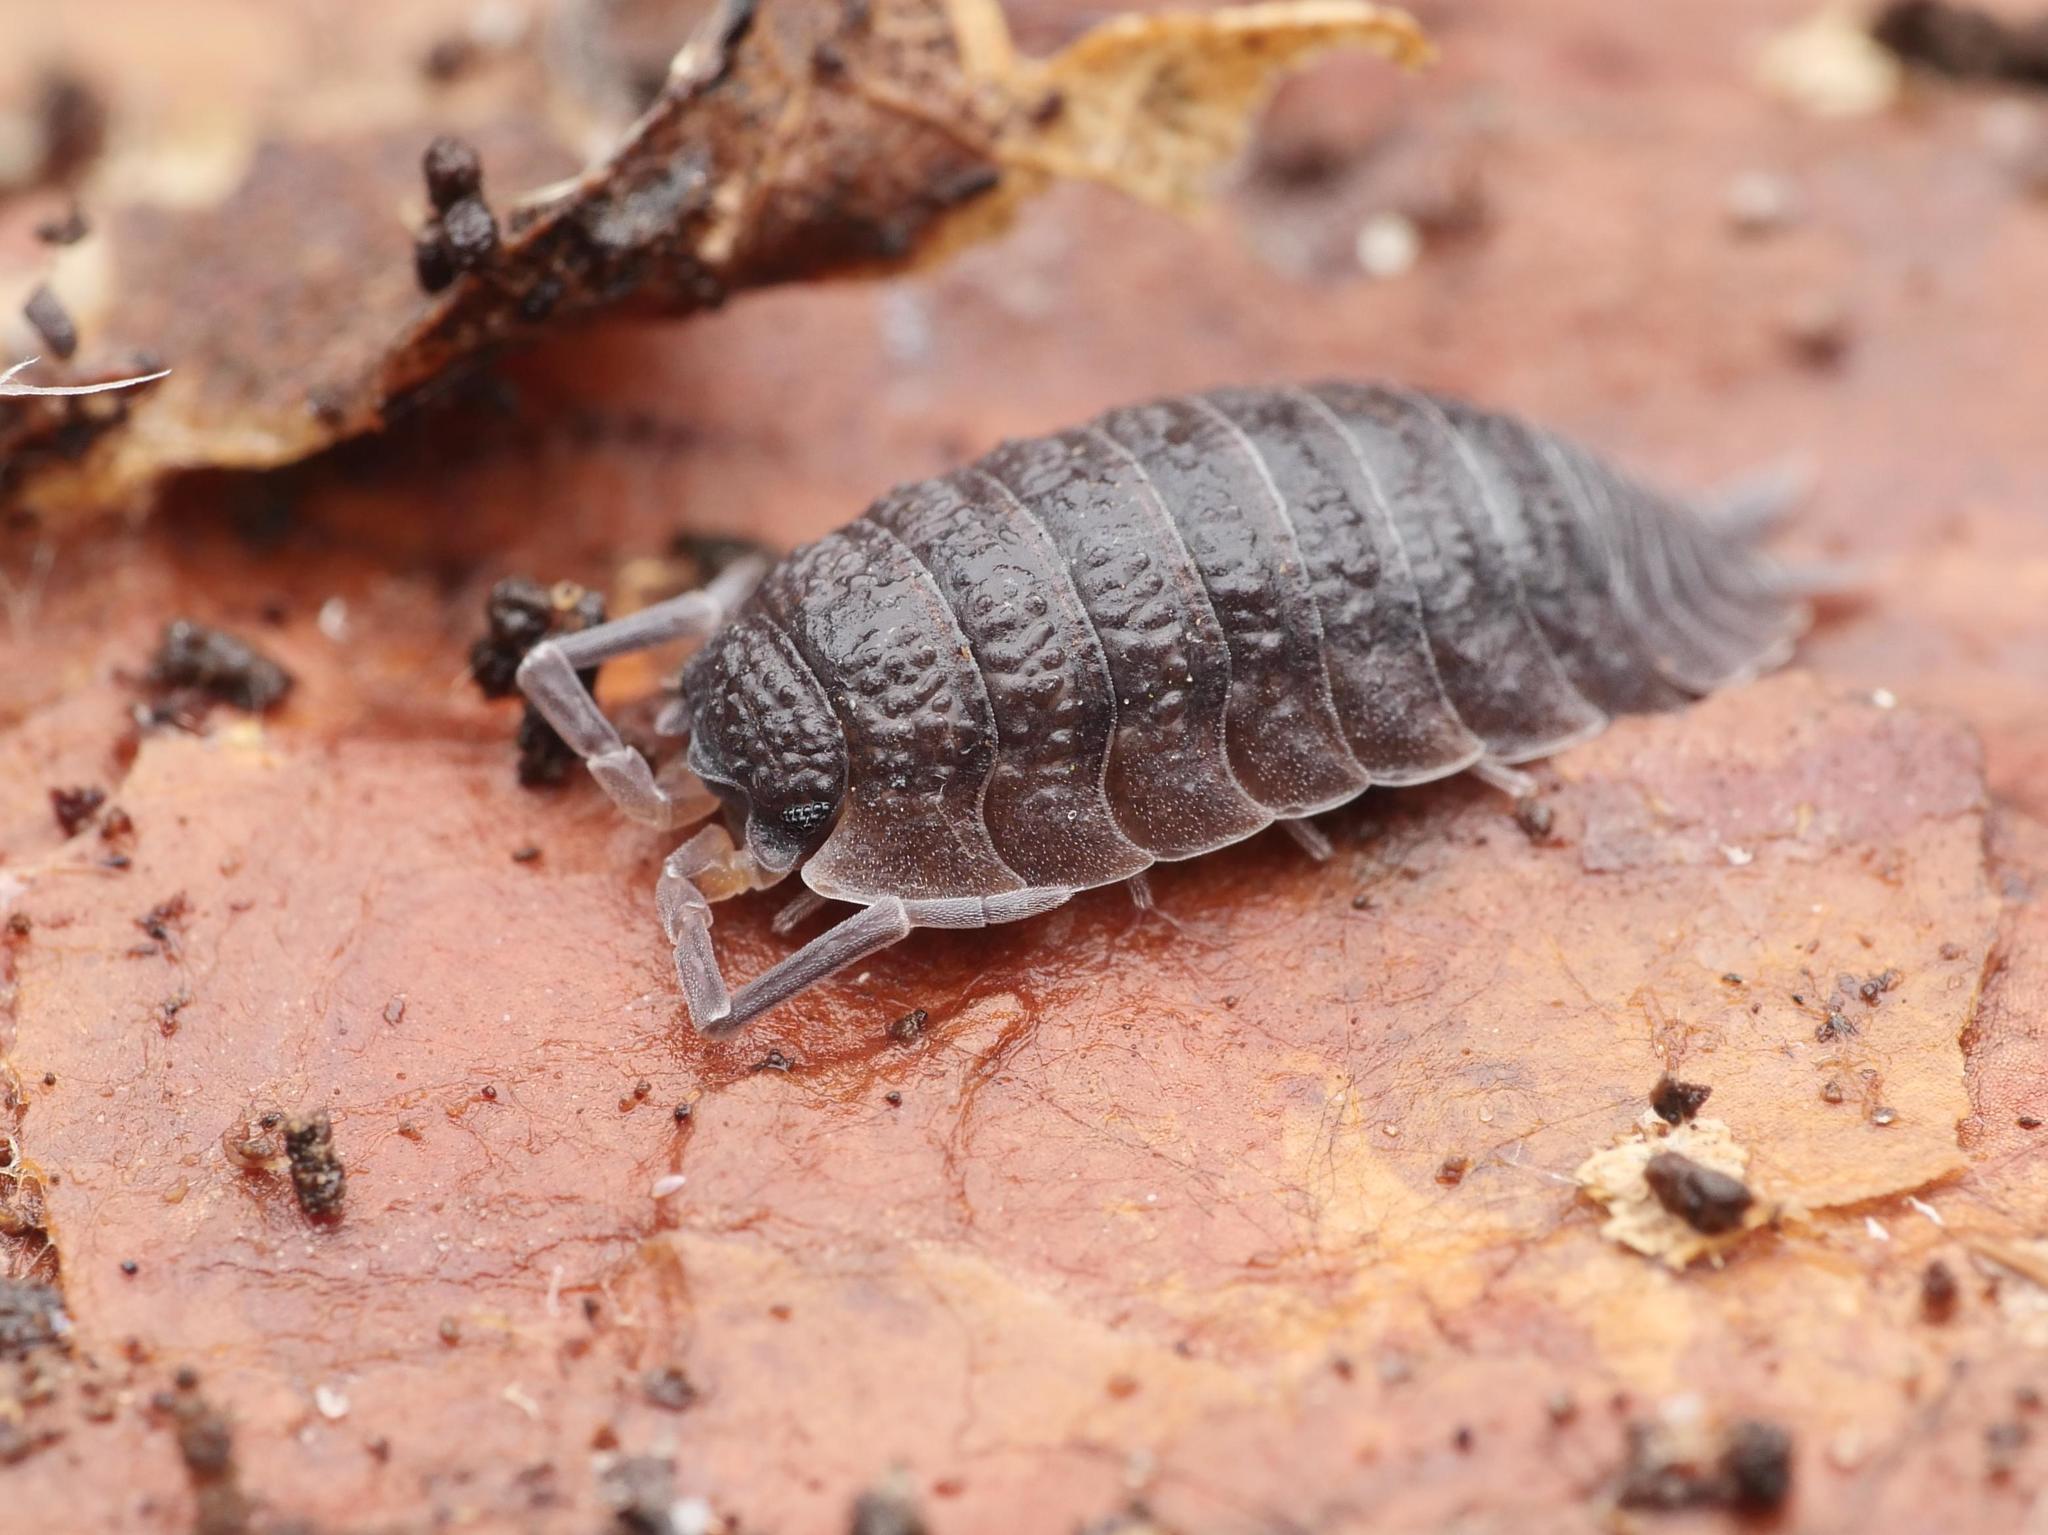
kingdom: Animalia
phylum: Arthropoda
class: Malacostraca
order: Isopoda
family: Porcellionidae
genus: Porcellio
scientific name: Porcellio scaber
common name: Common rough woodlouse
